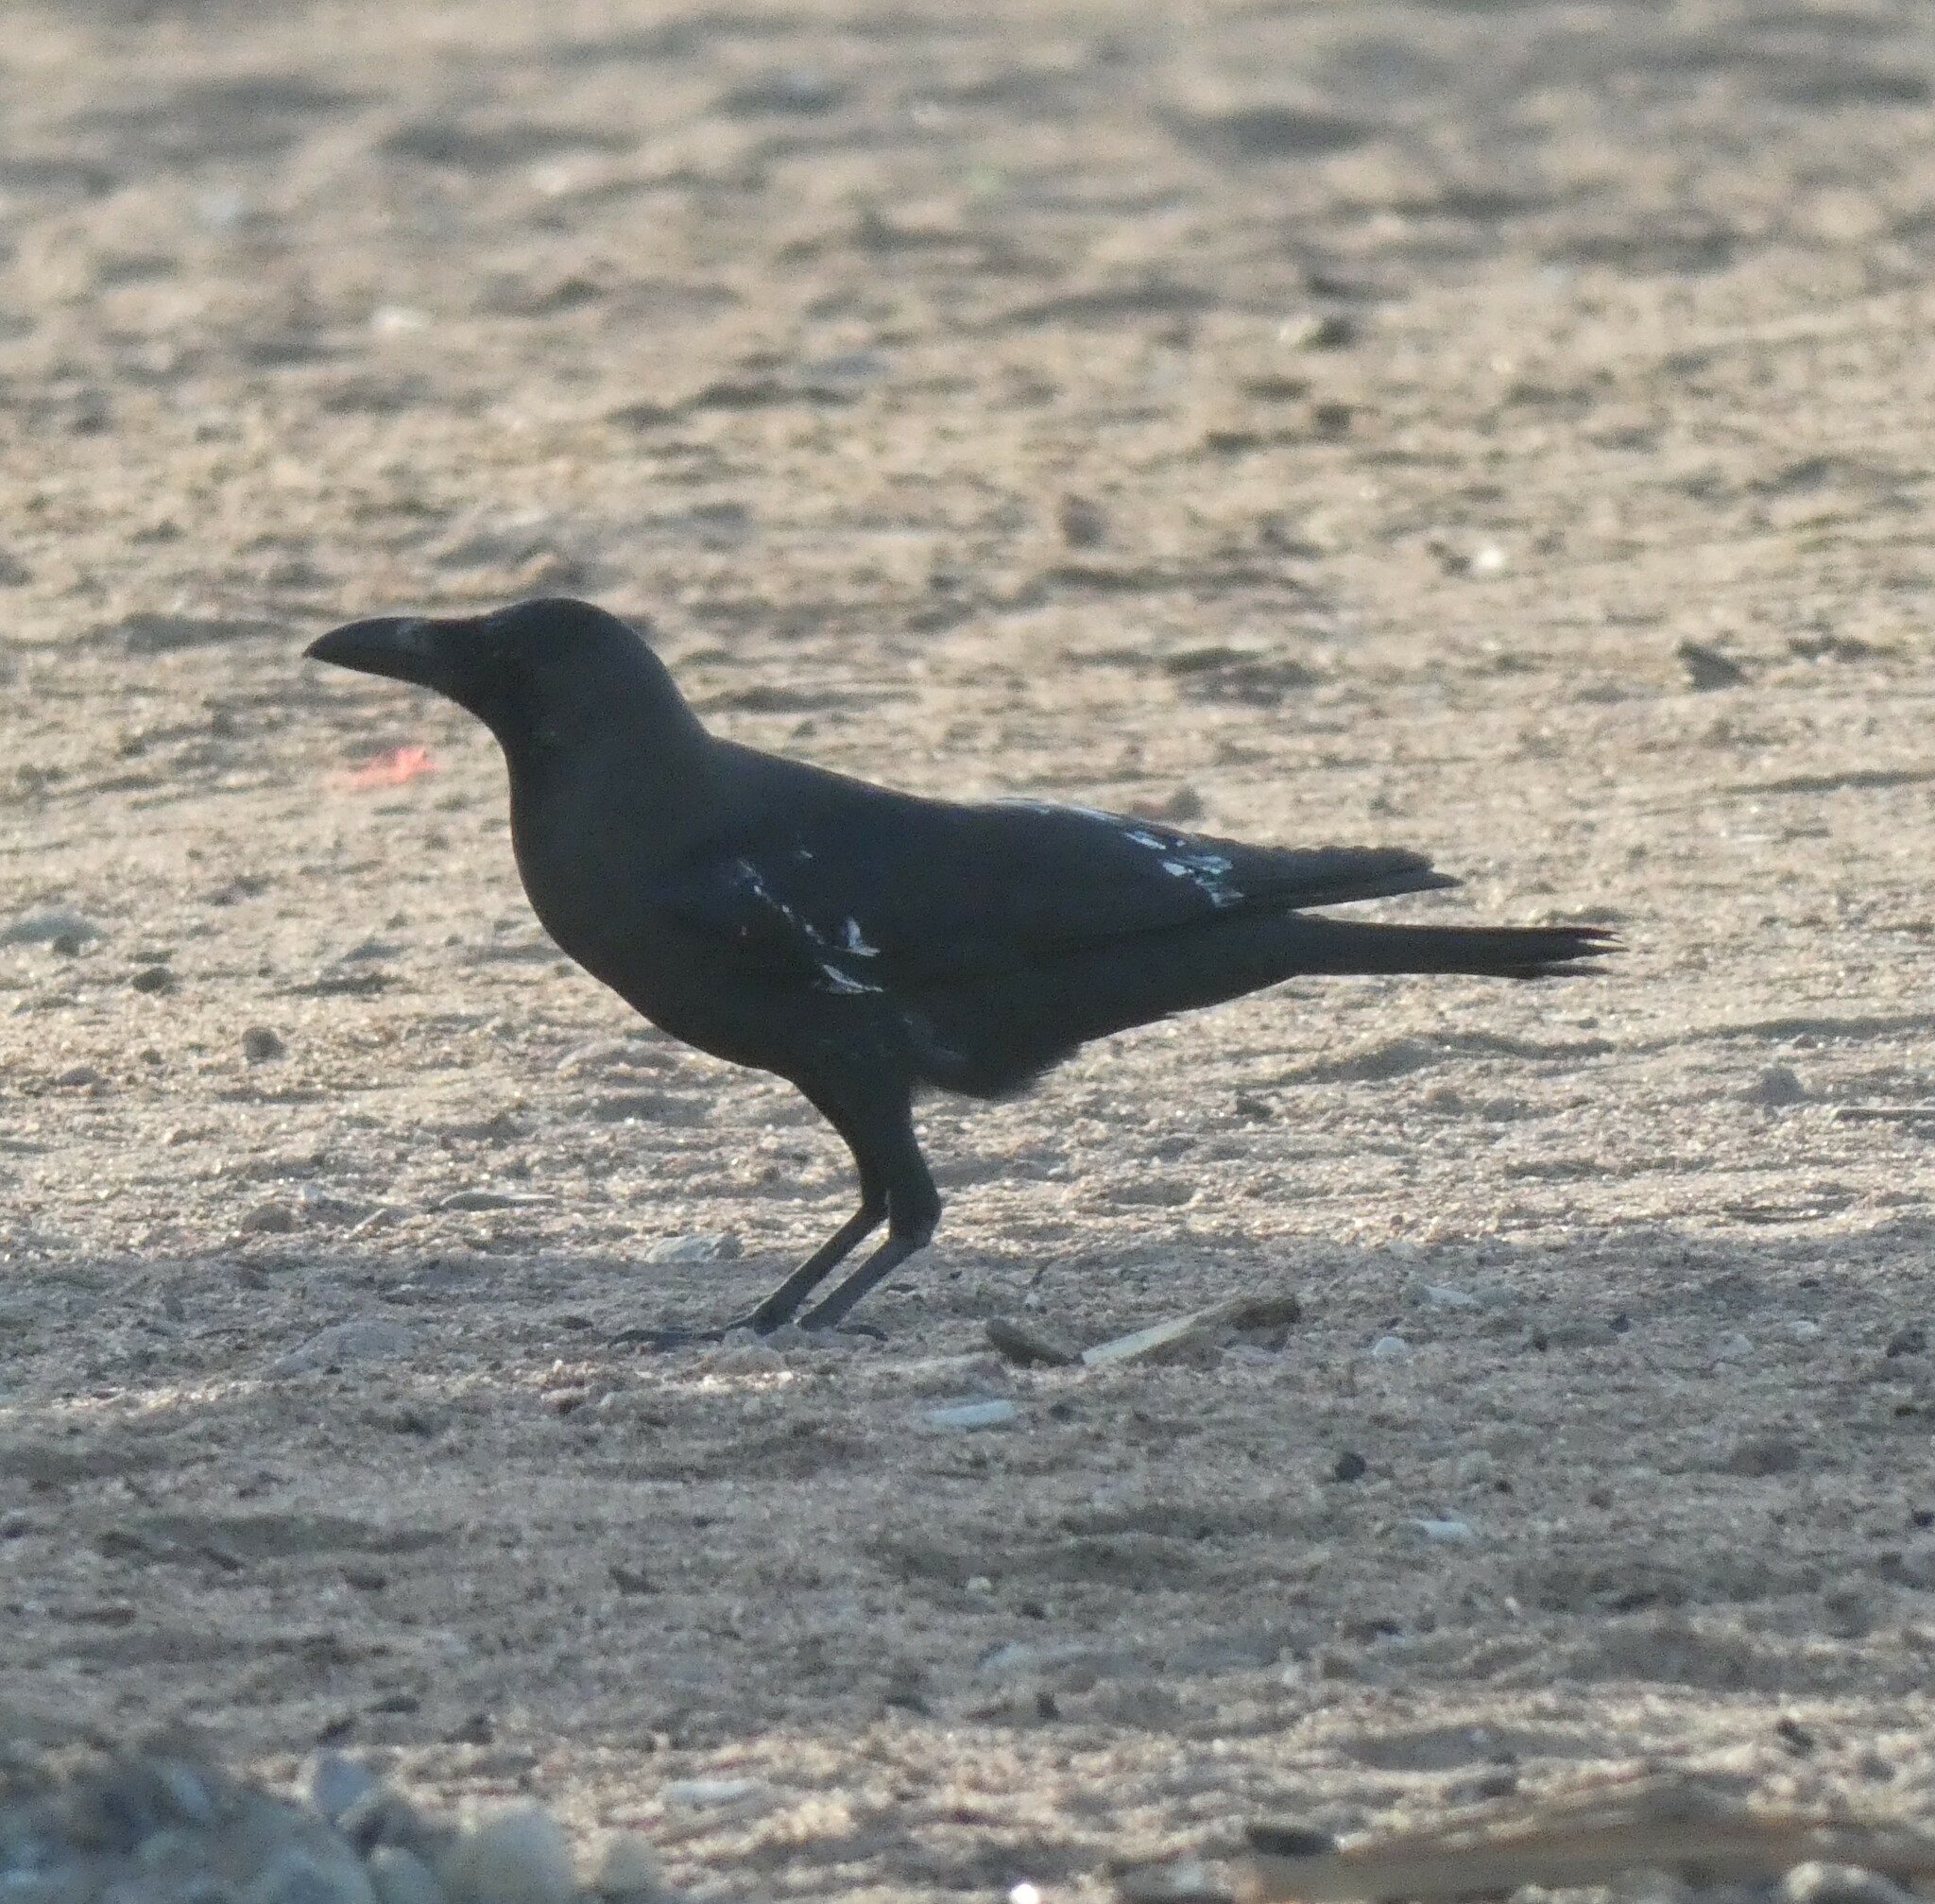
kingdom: Animalia
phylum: Chordata
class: Aves
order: Passeriformes
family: Corvidae
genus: Corvus
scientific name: Corvus splendens
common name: House crow
